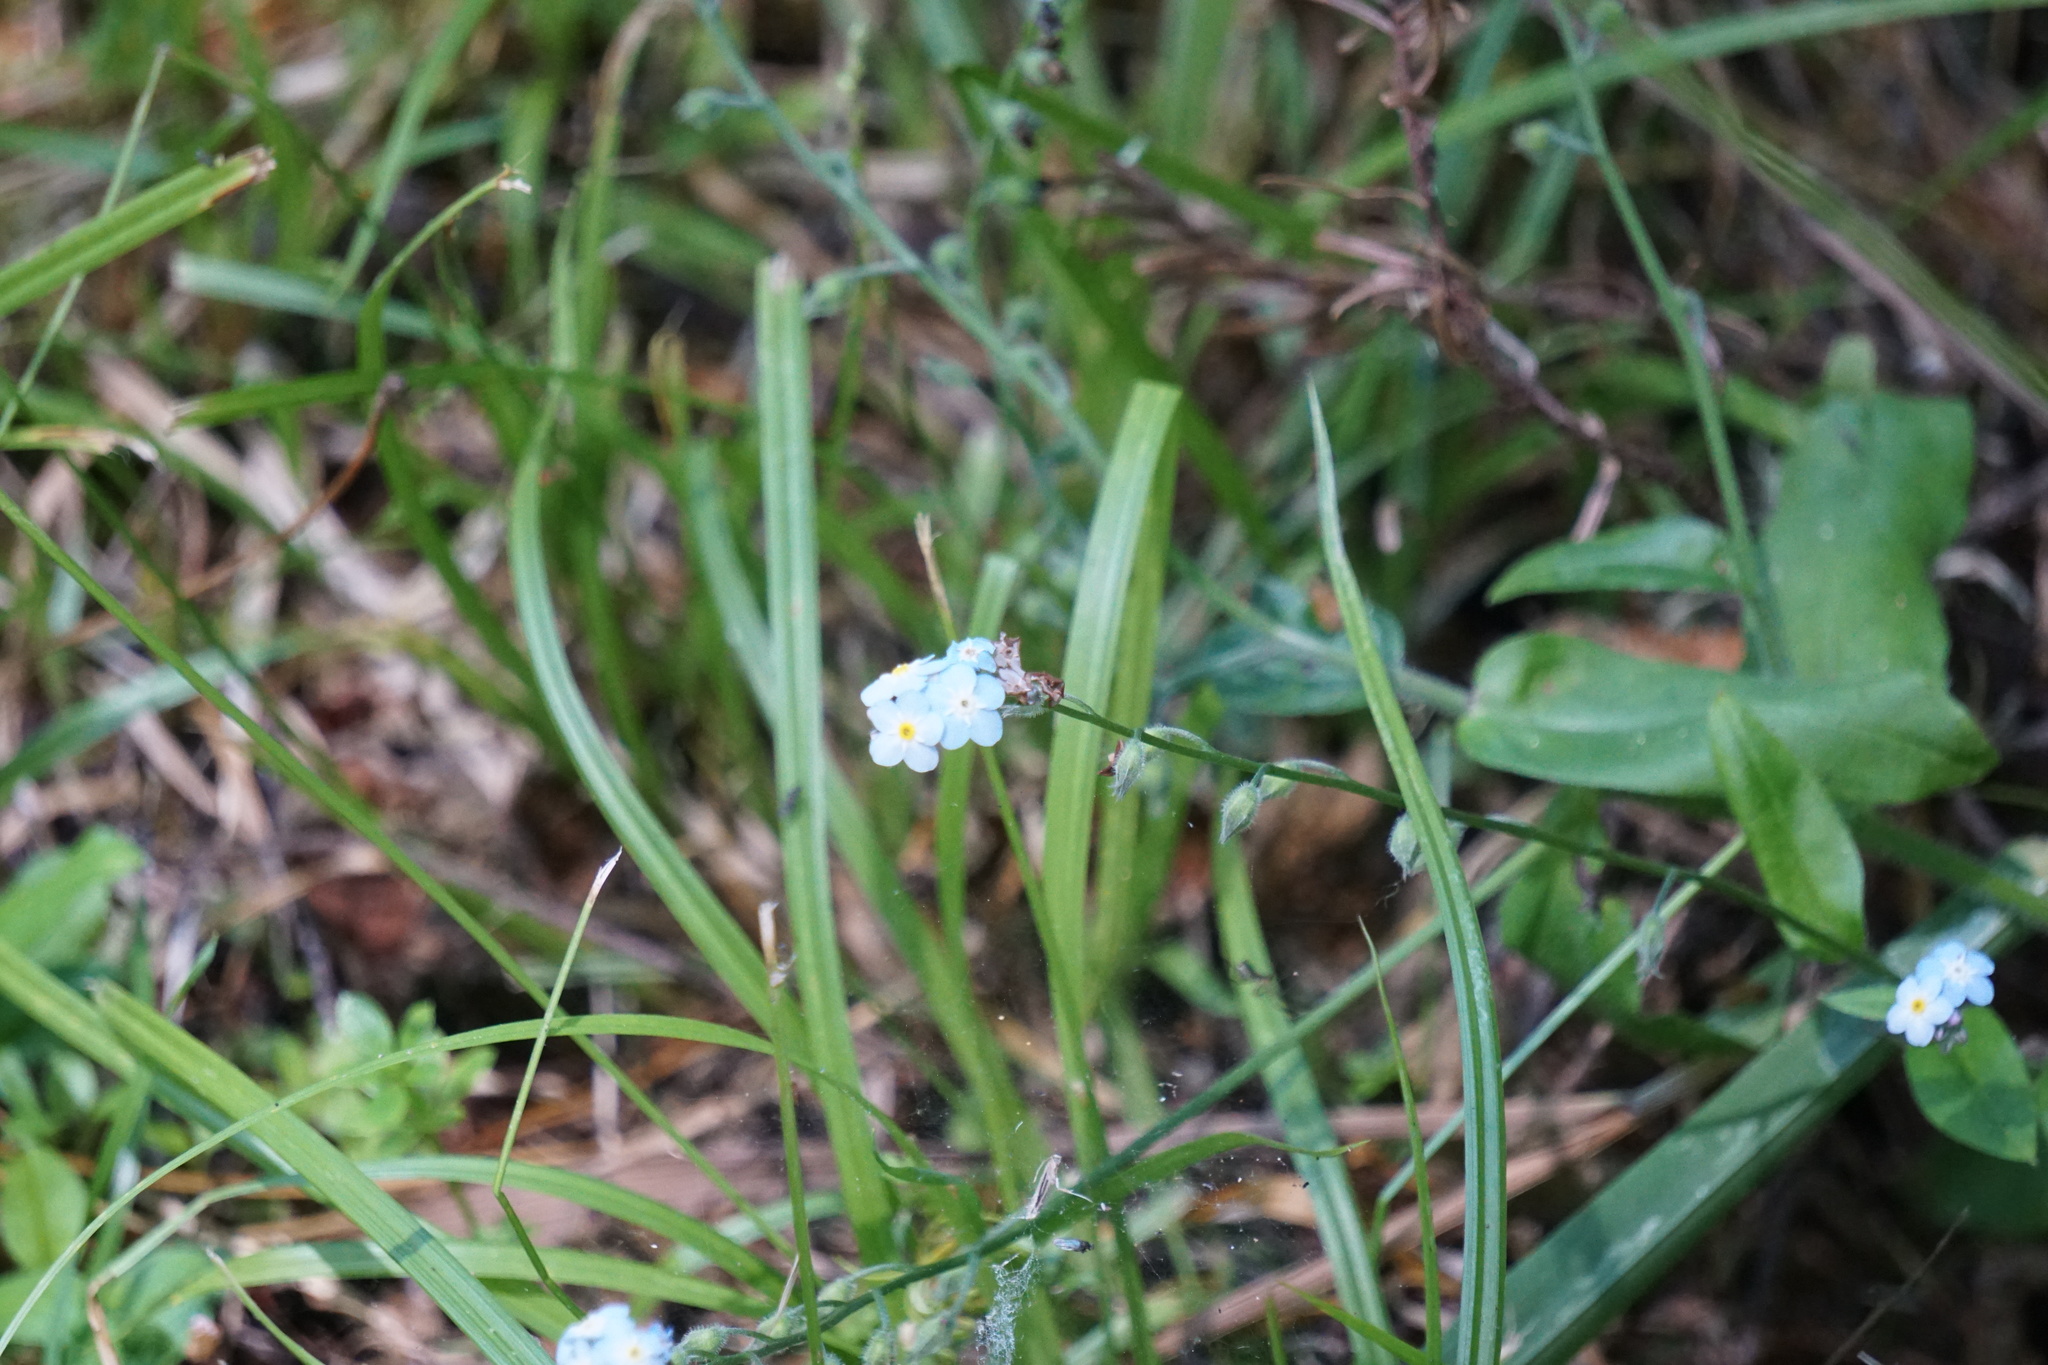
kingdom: Plantae
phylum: Tracheophyta
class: Magnoliopsida
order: Boraginales
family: Boraginaceae
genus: Myosotis
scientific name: Myosotis latifolia
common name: Broadleaf forget-me-not
